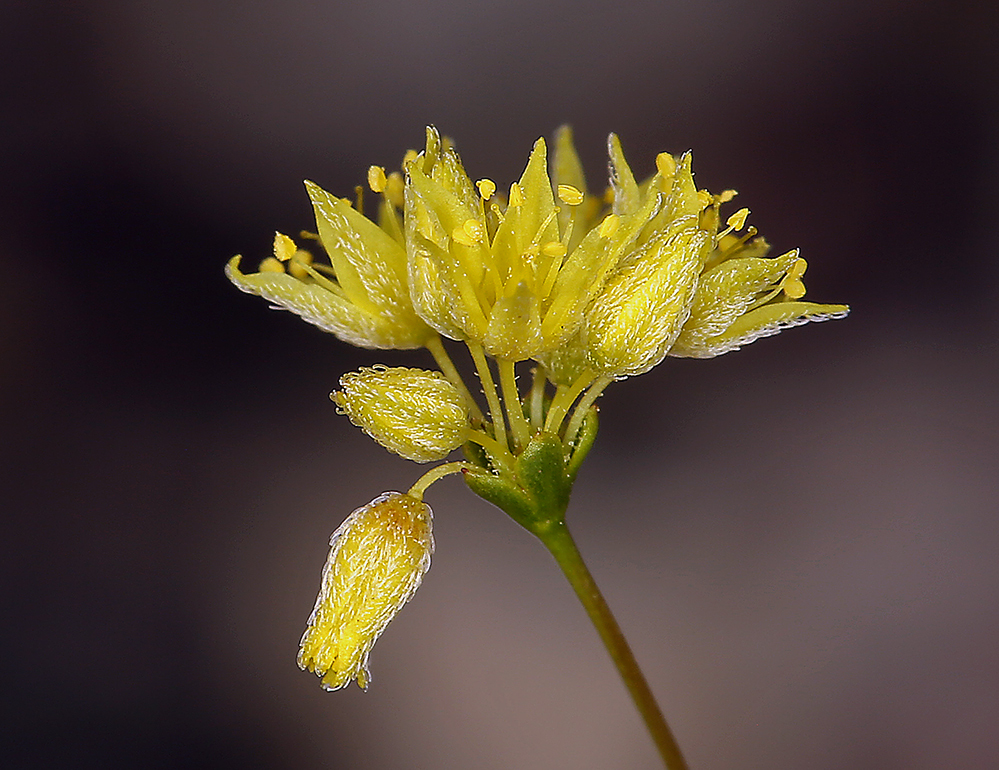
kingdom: Plantae
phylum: Tracheophyta
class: Magnoliopsida
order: Caryophyllales
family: Polygonaceae
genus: Eriogonum
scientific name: Eriogonum contiguum
